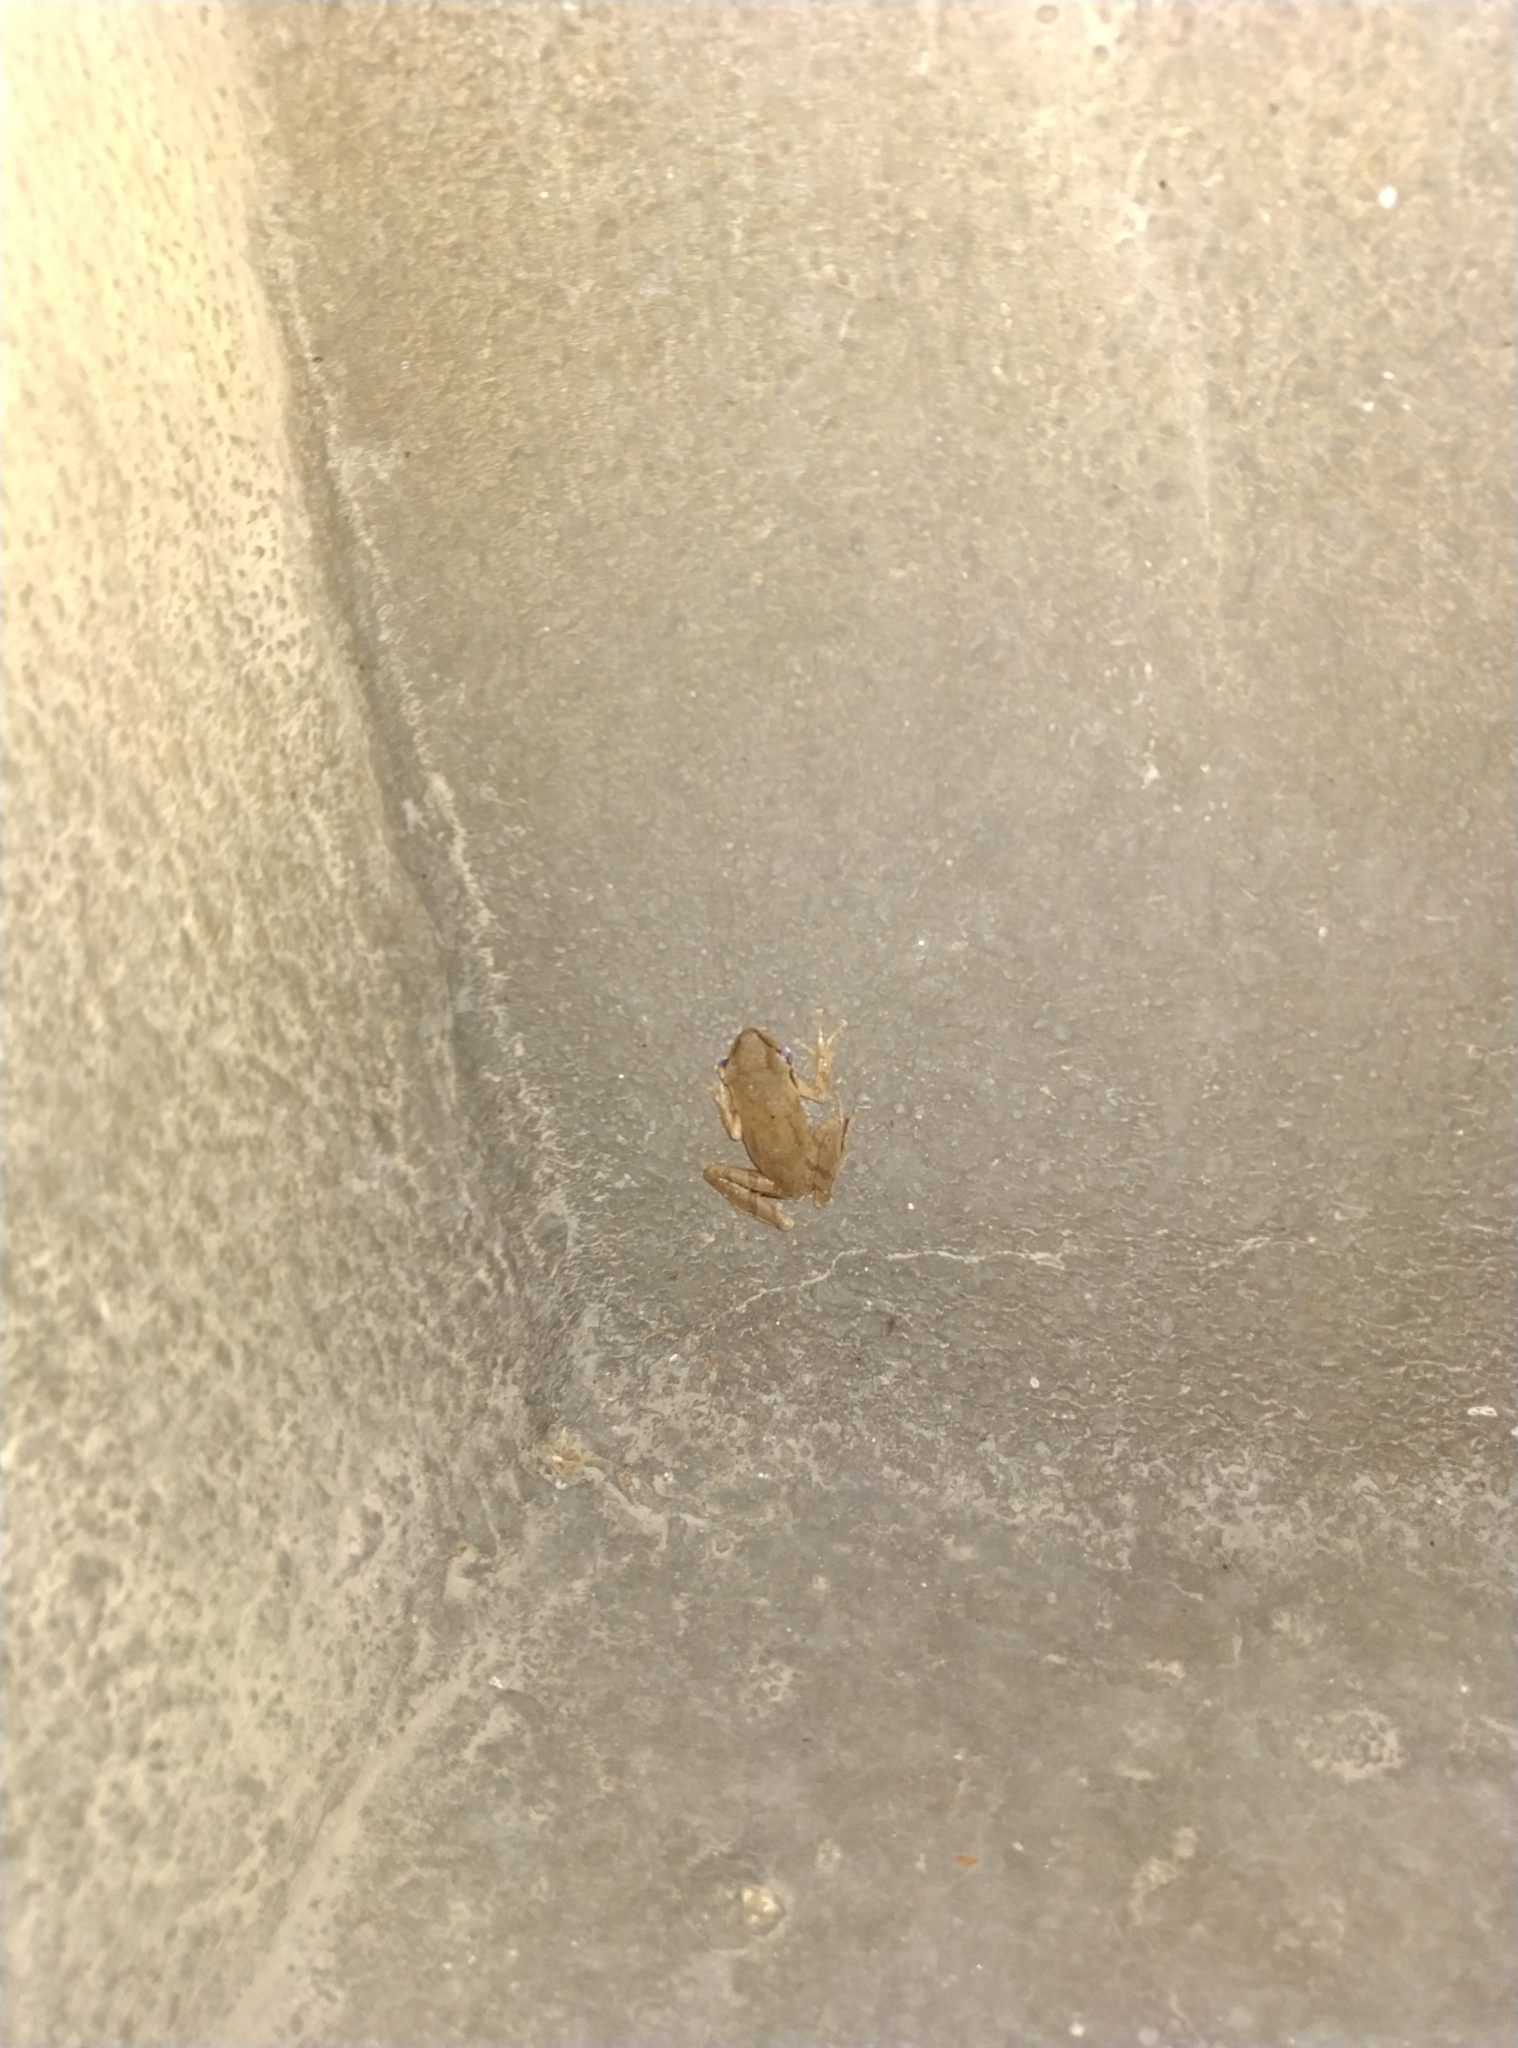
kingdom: Animalia
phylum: Chordata
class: Amphibia
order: Anura
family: Rhacophoridae
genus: Polypedates
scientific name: Polypedates maculatus
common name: Himalayan tree frog
